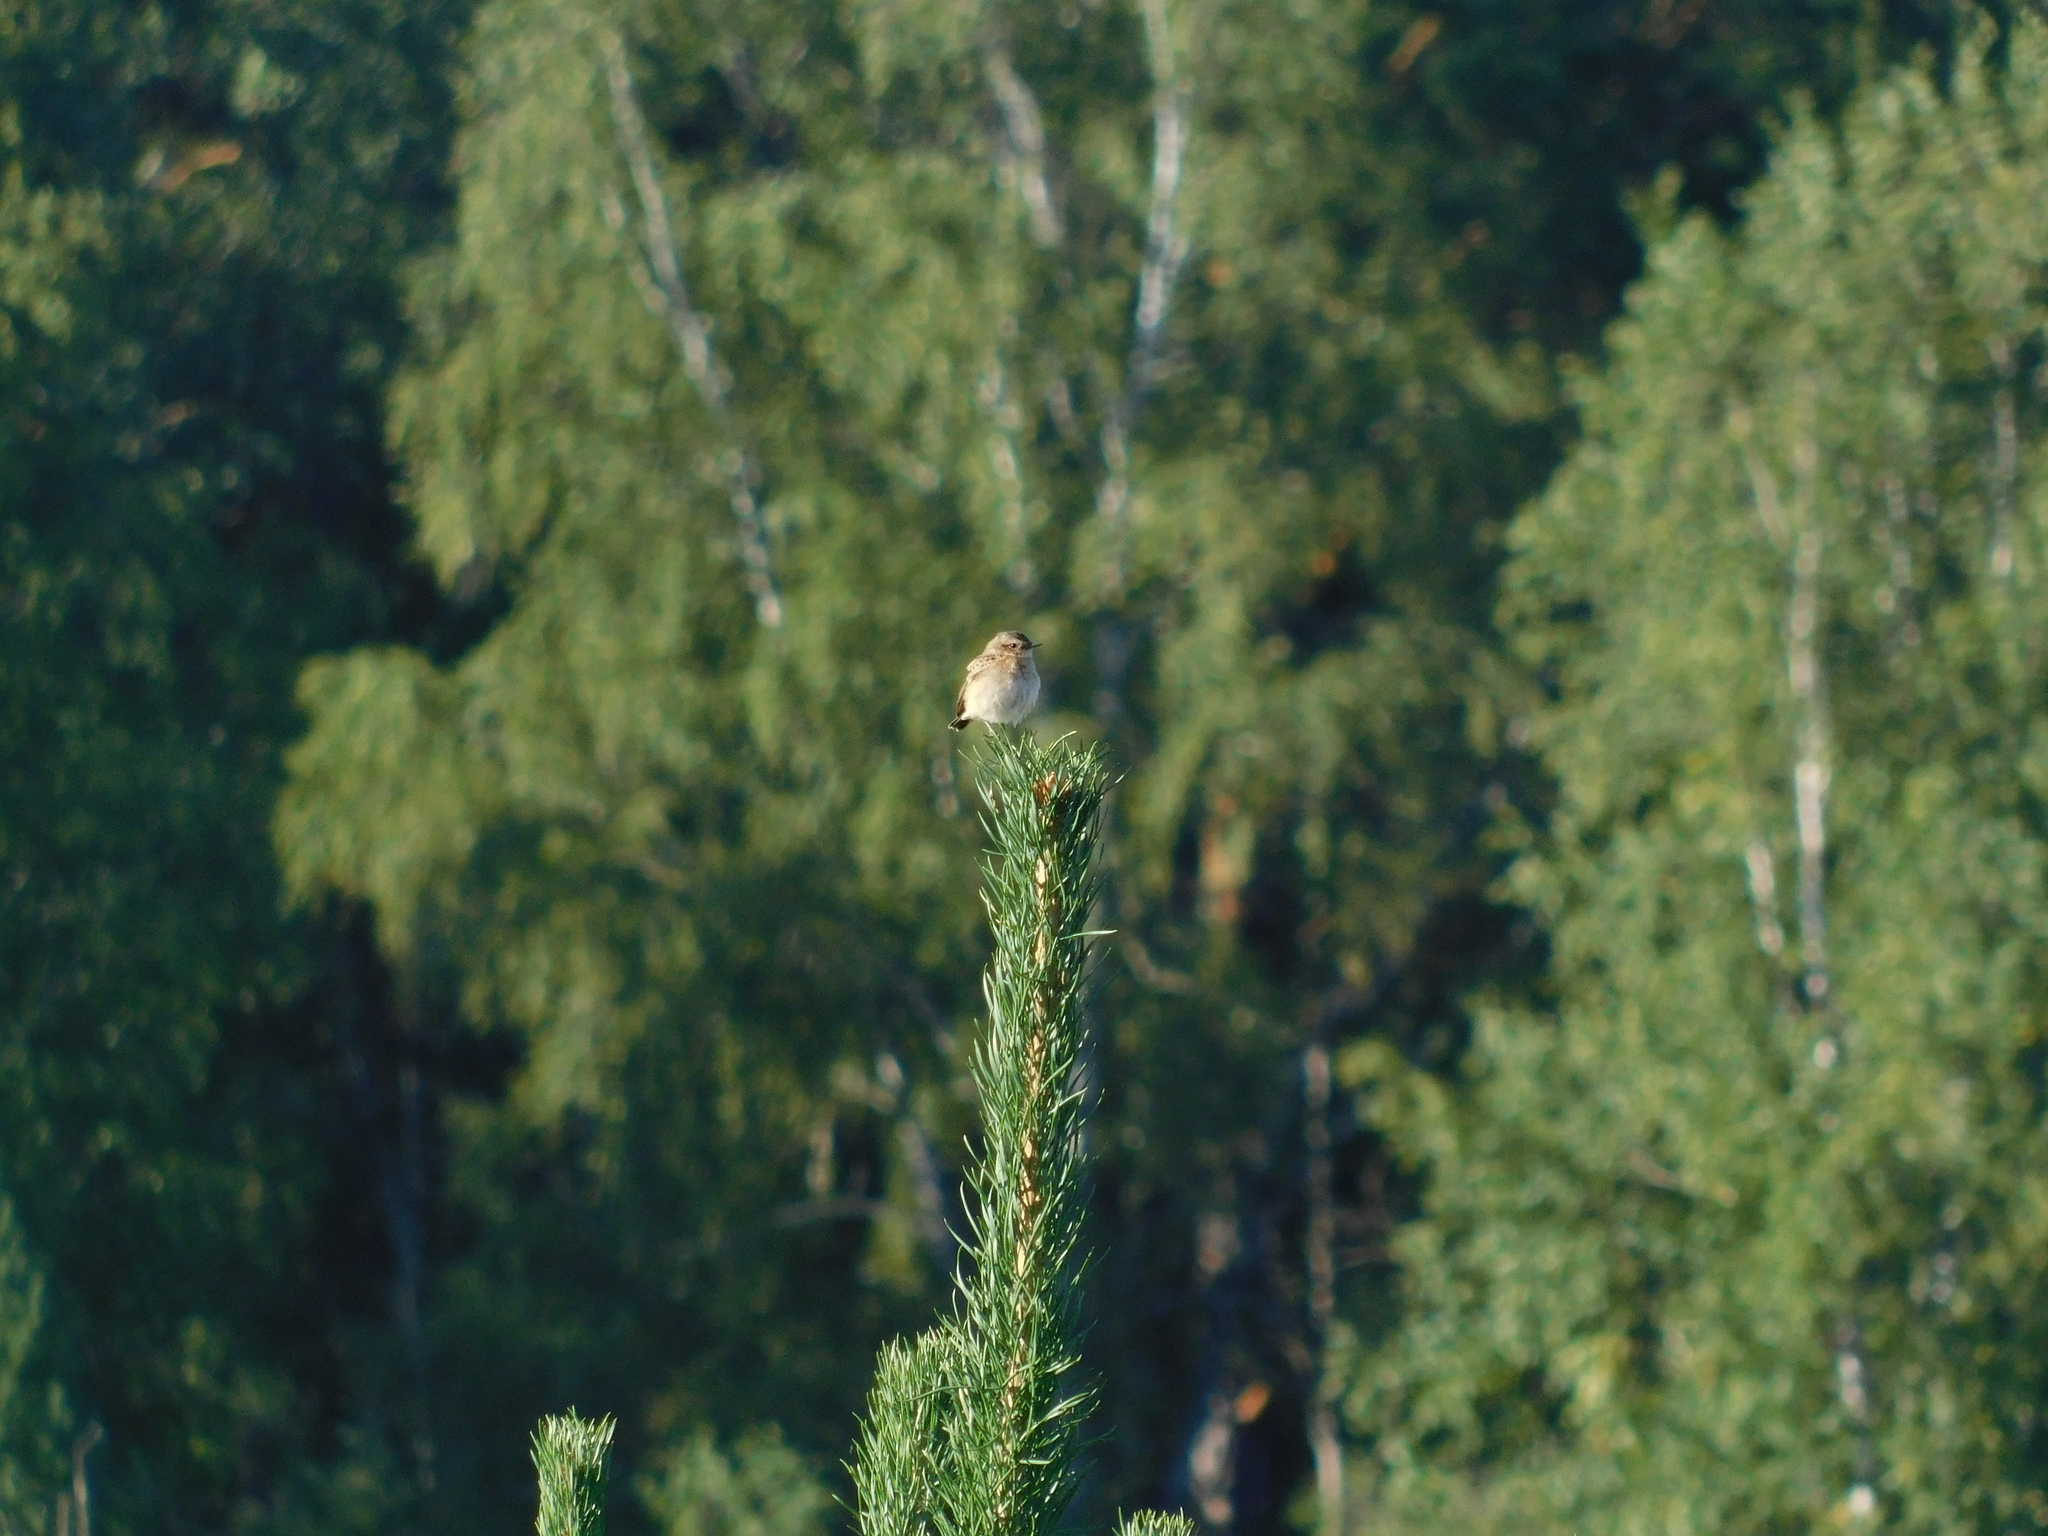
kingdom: Animalia
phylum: Chordata
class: Aves
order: Passeriformes
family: Muscicapidae
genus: Saxicola
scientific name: Saxicola rubetra
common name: Whinchat
